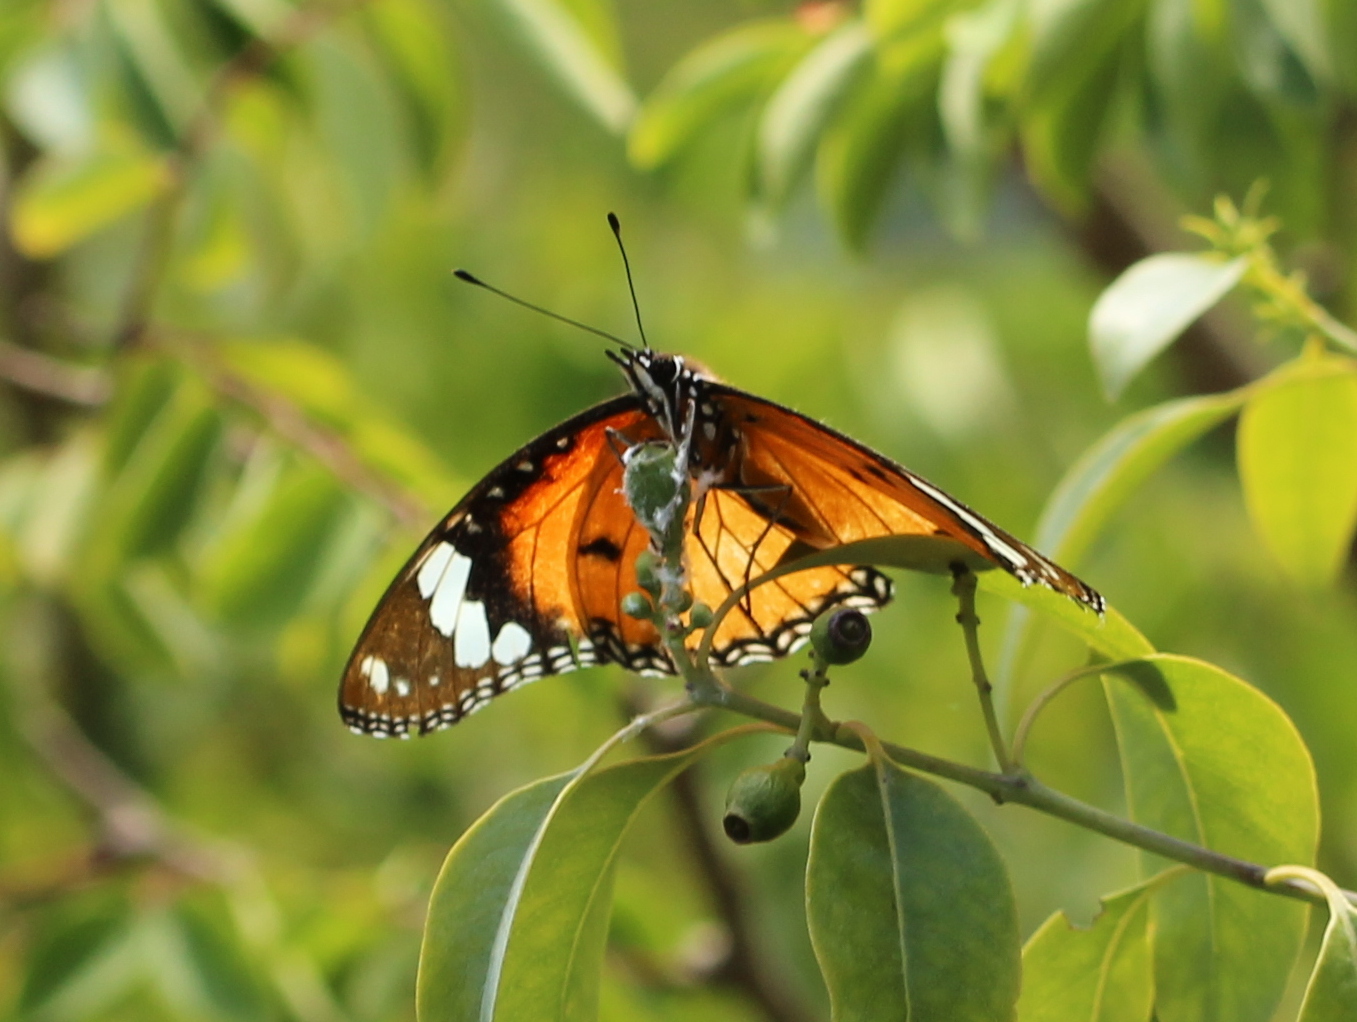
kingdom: Animalia
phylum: Arthropoda
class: Insecta
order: Lepidoptera
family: Nymphalidae
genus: Hypolimnas
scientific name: Hypolimnas misippus
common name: False plain tiger
